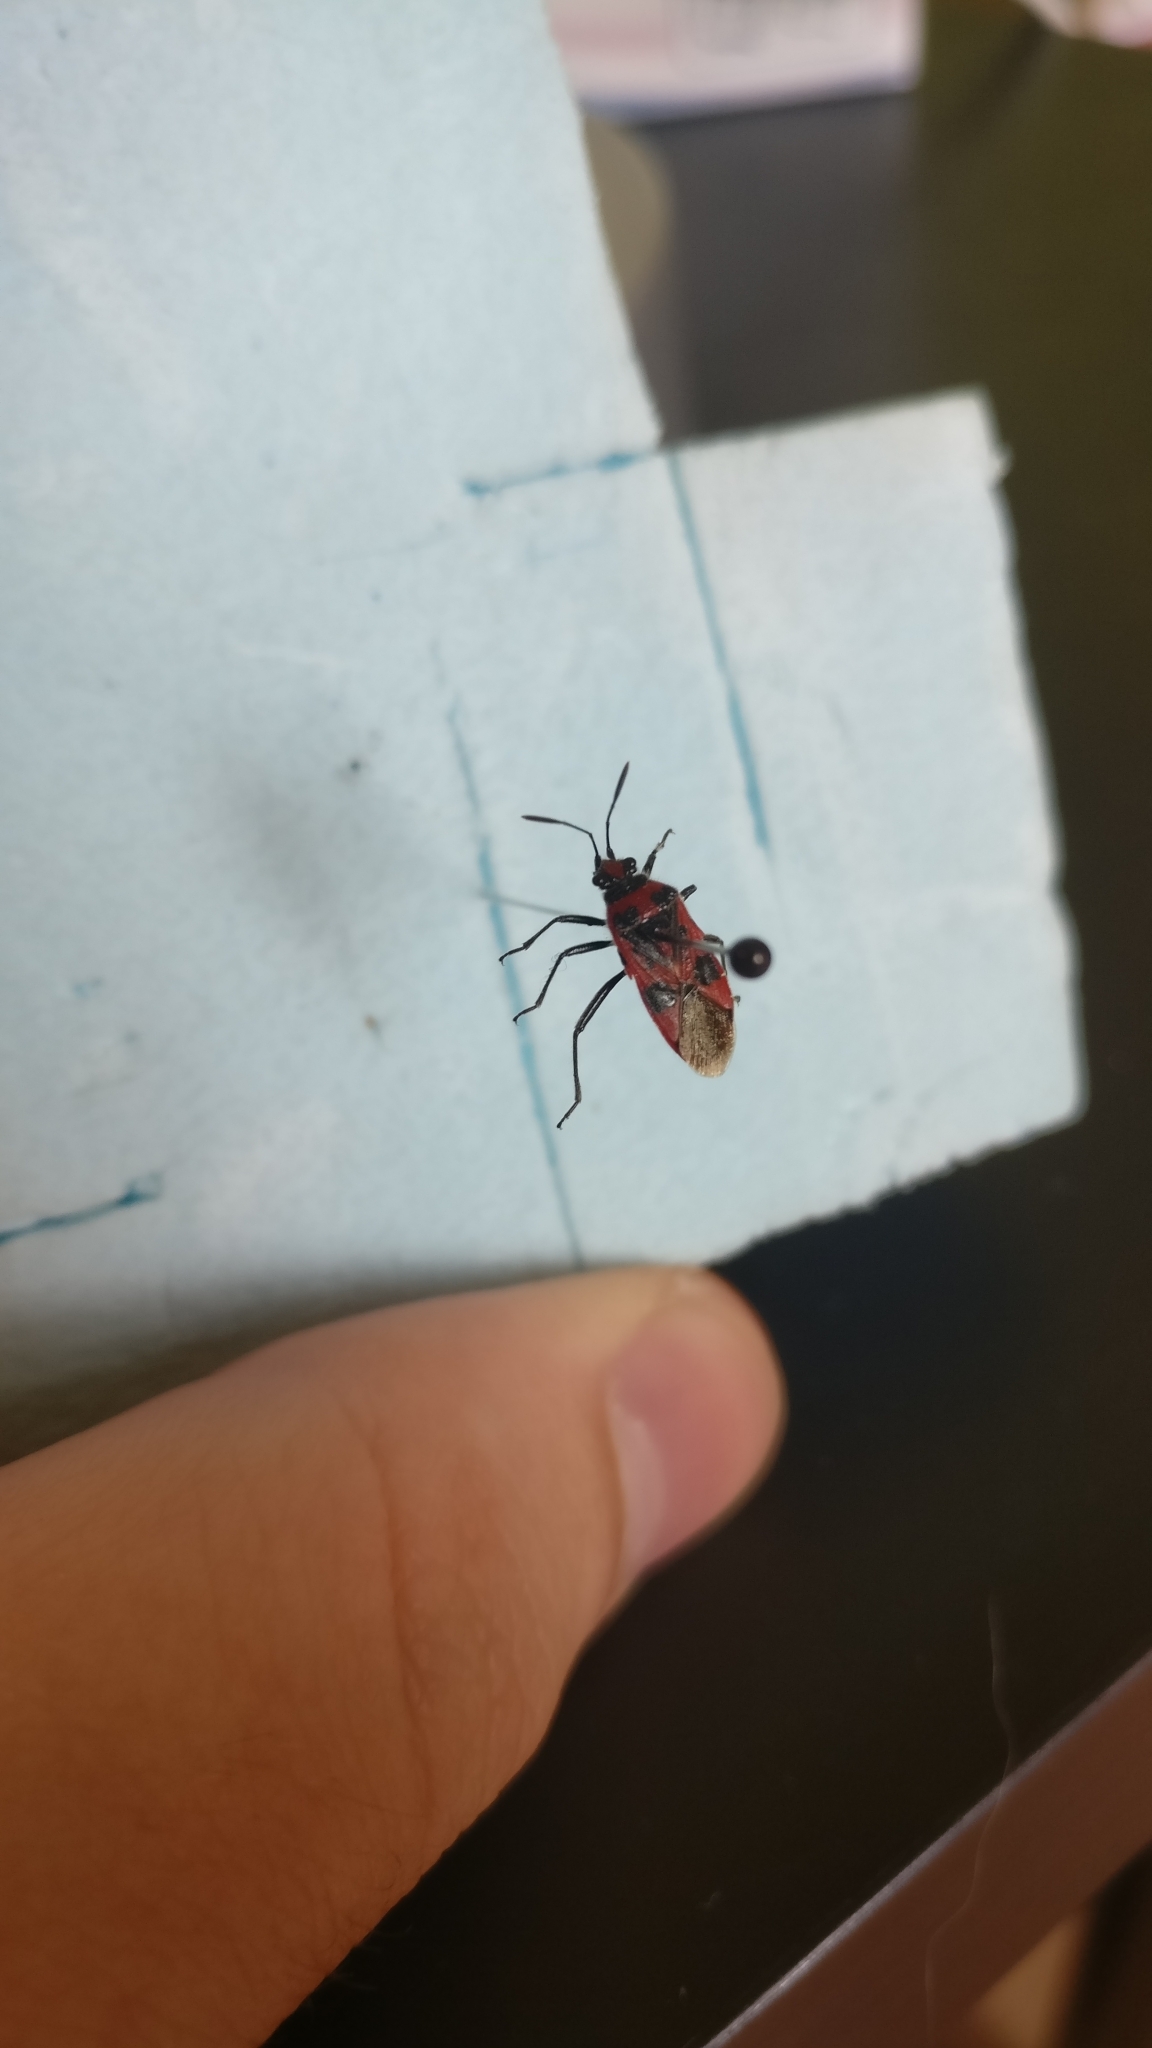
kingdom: Animalia
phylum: Arthropoda
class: Insecta
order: Hemiptera
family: Rhopalidae
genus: Corizus
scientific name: Corizus hyoscyami
